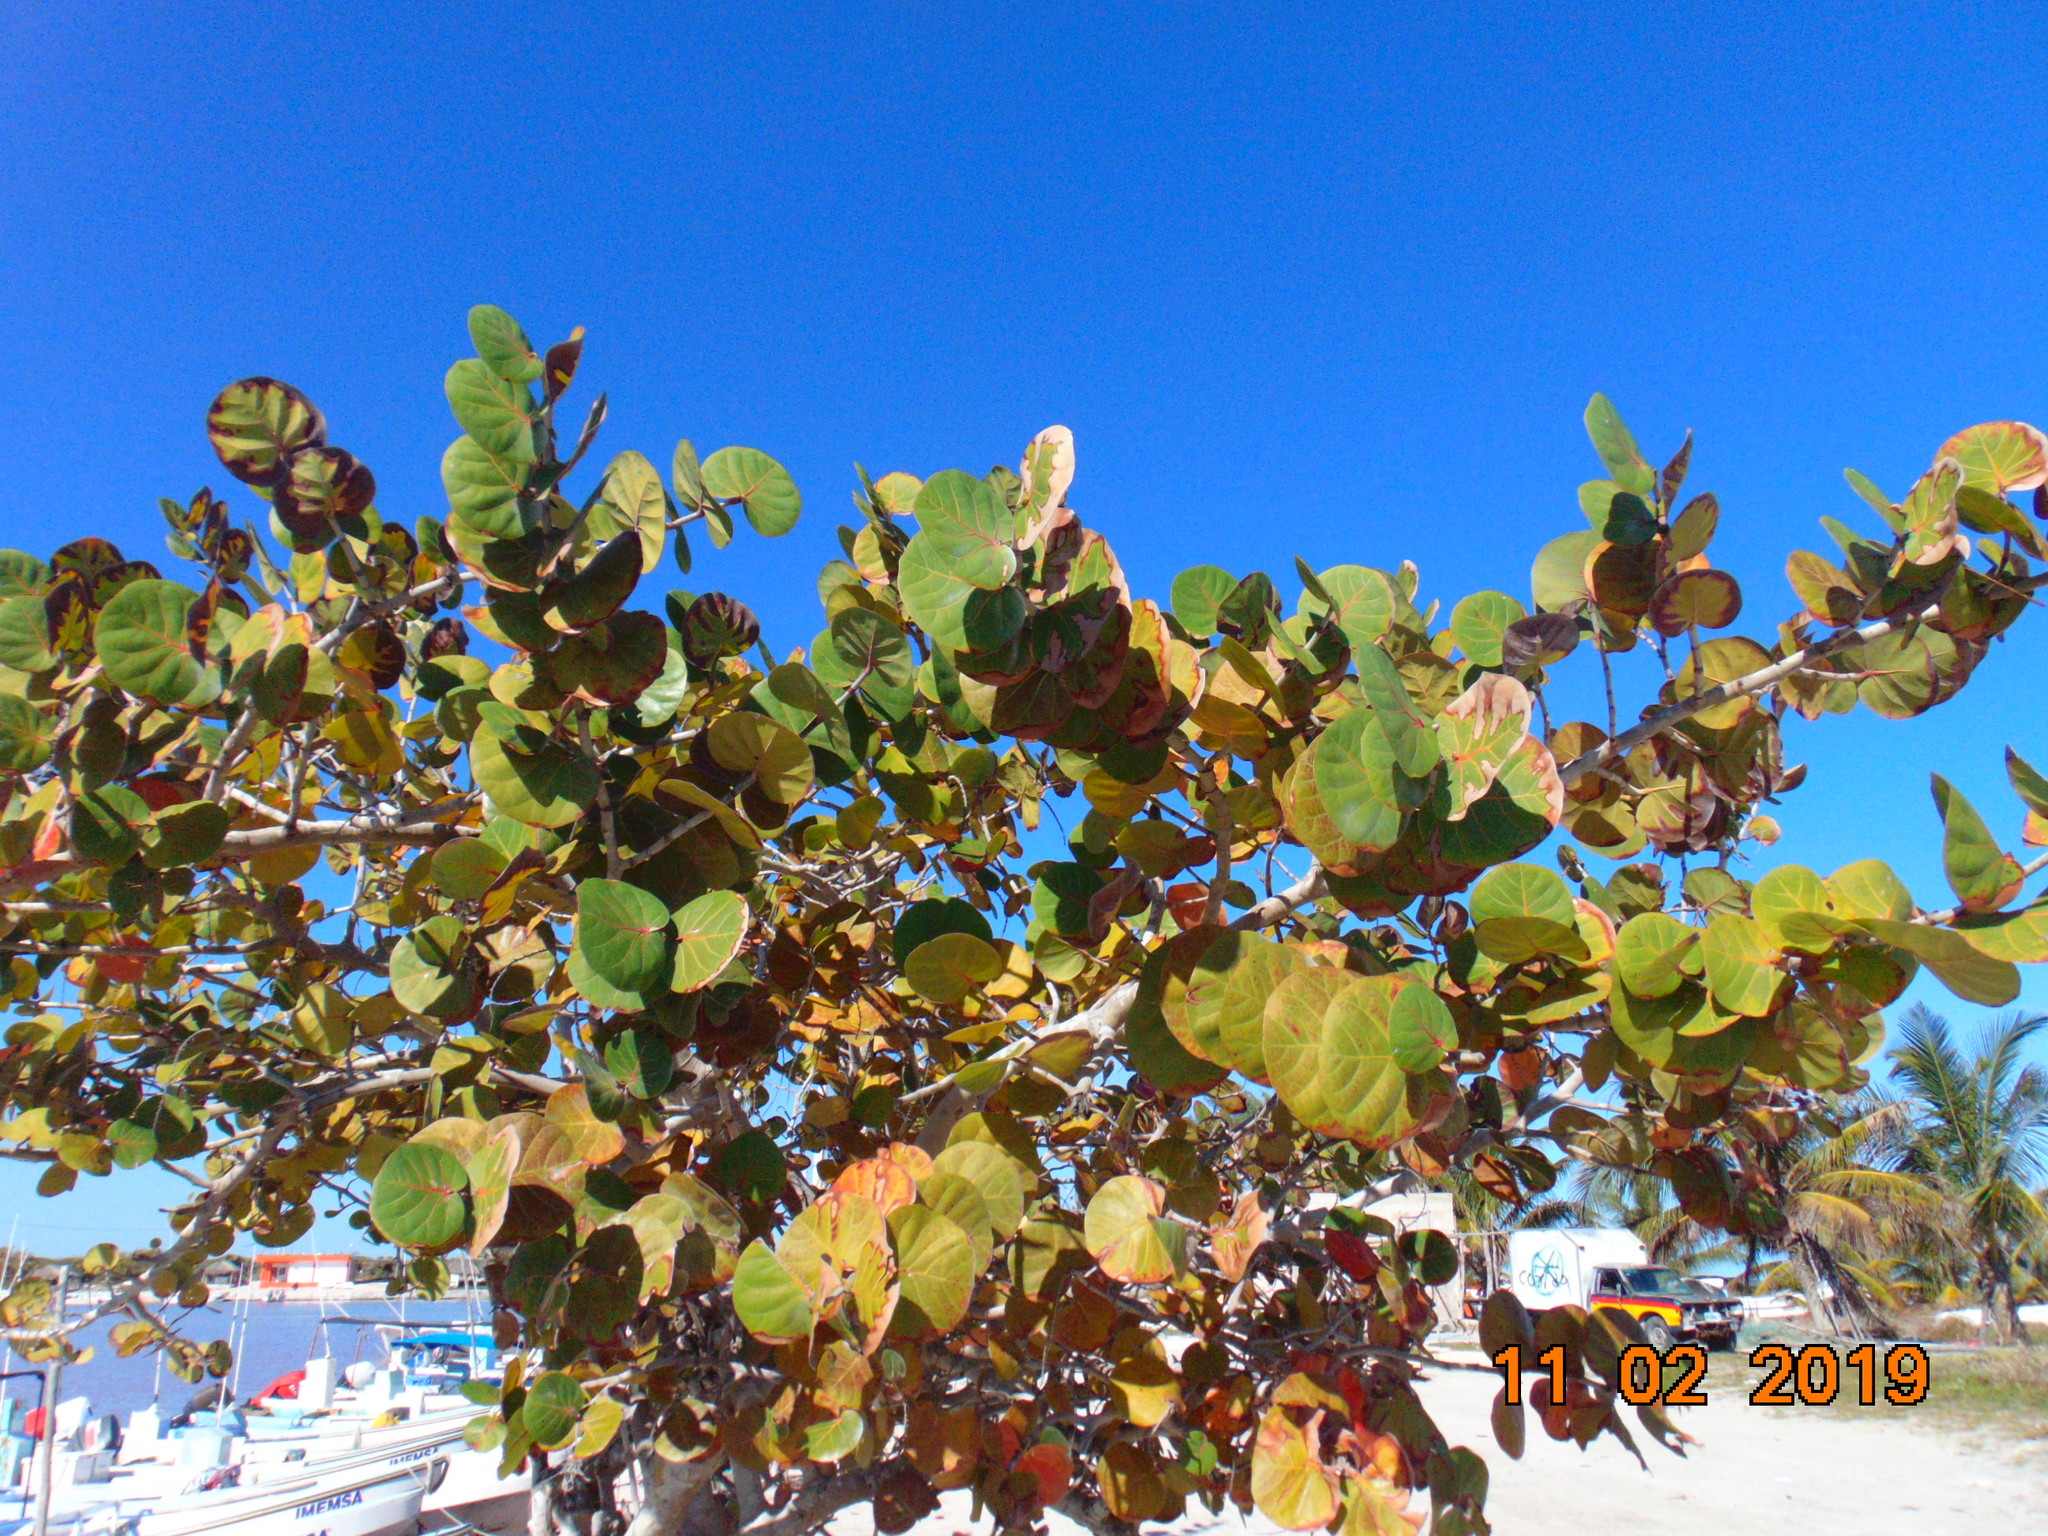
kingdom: Plantae
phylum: Tracheophyta
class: Magnoliopsida
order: Caryophyllales
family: Polygonaceae
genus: Coccoloba
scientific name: Coccoloba uvifera
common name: Seagrape
